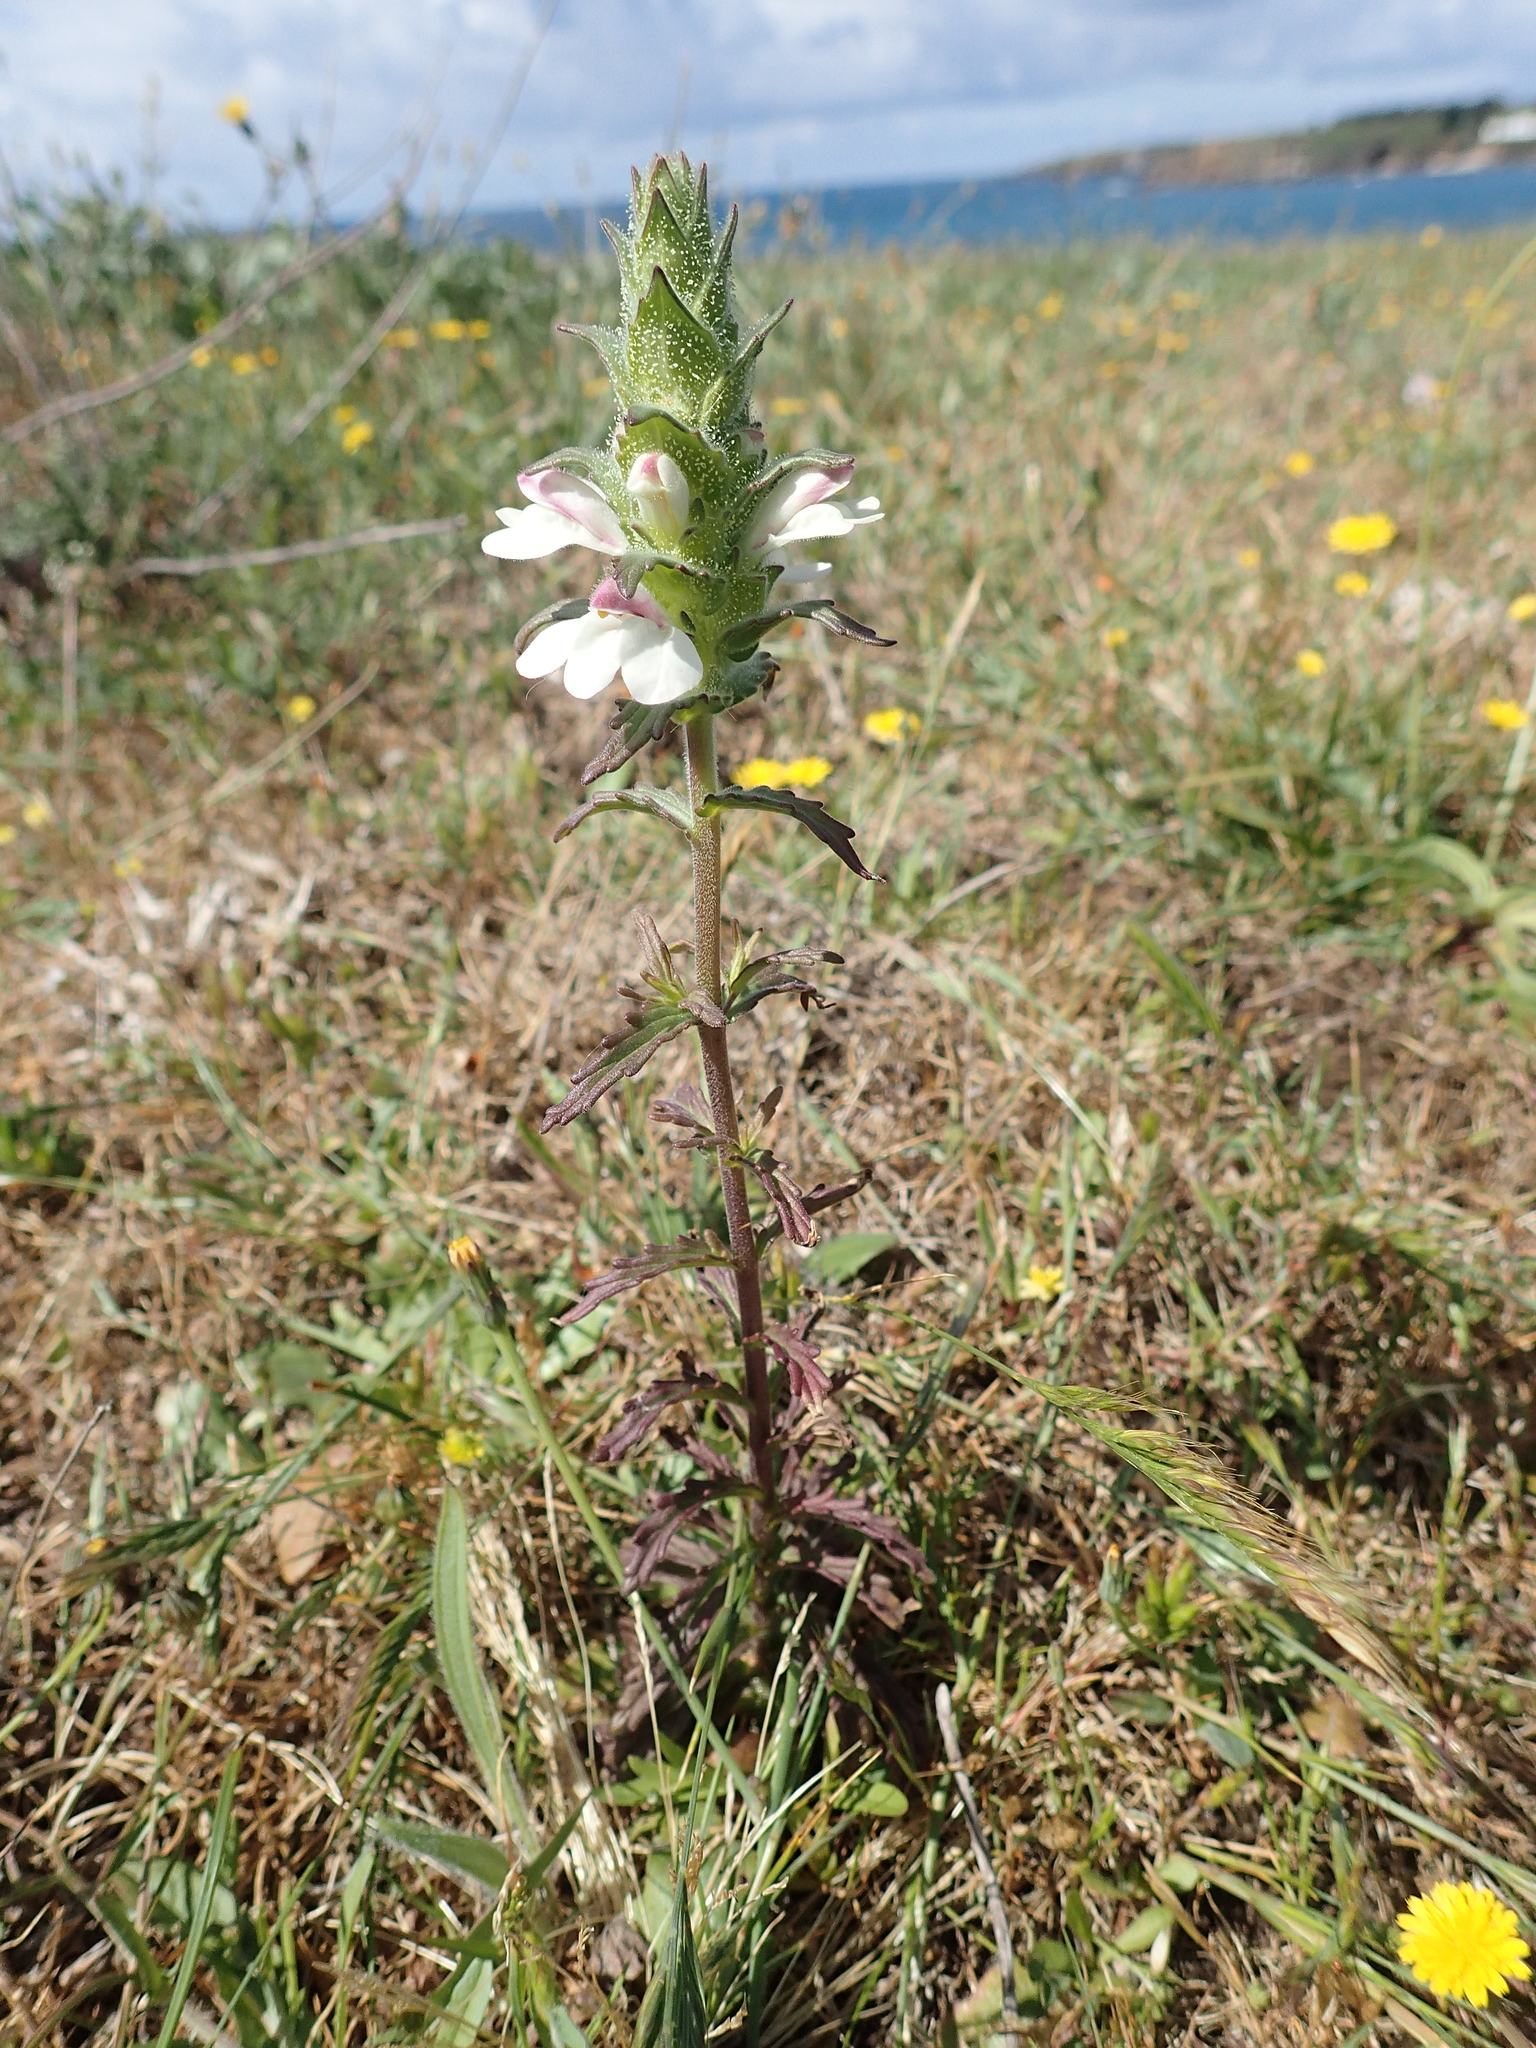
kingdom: Plantae
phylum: Tracheophyta
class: Magnoliopsida
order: Lamiales
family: Orobanchaceae
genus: Bellardia
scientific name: Bellardia trixago
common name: Mediterranean lineseed
